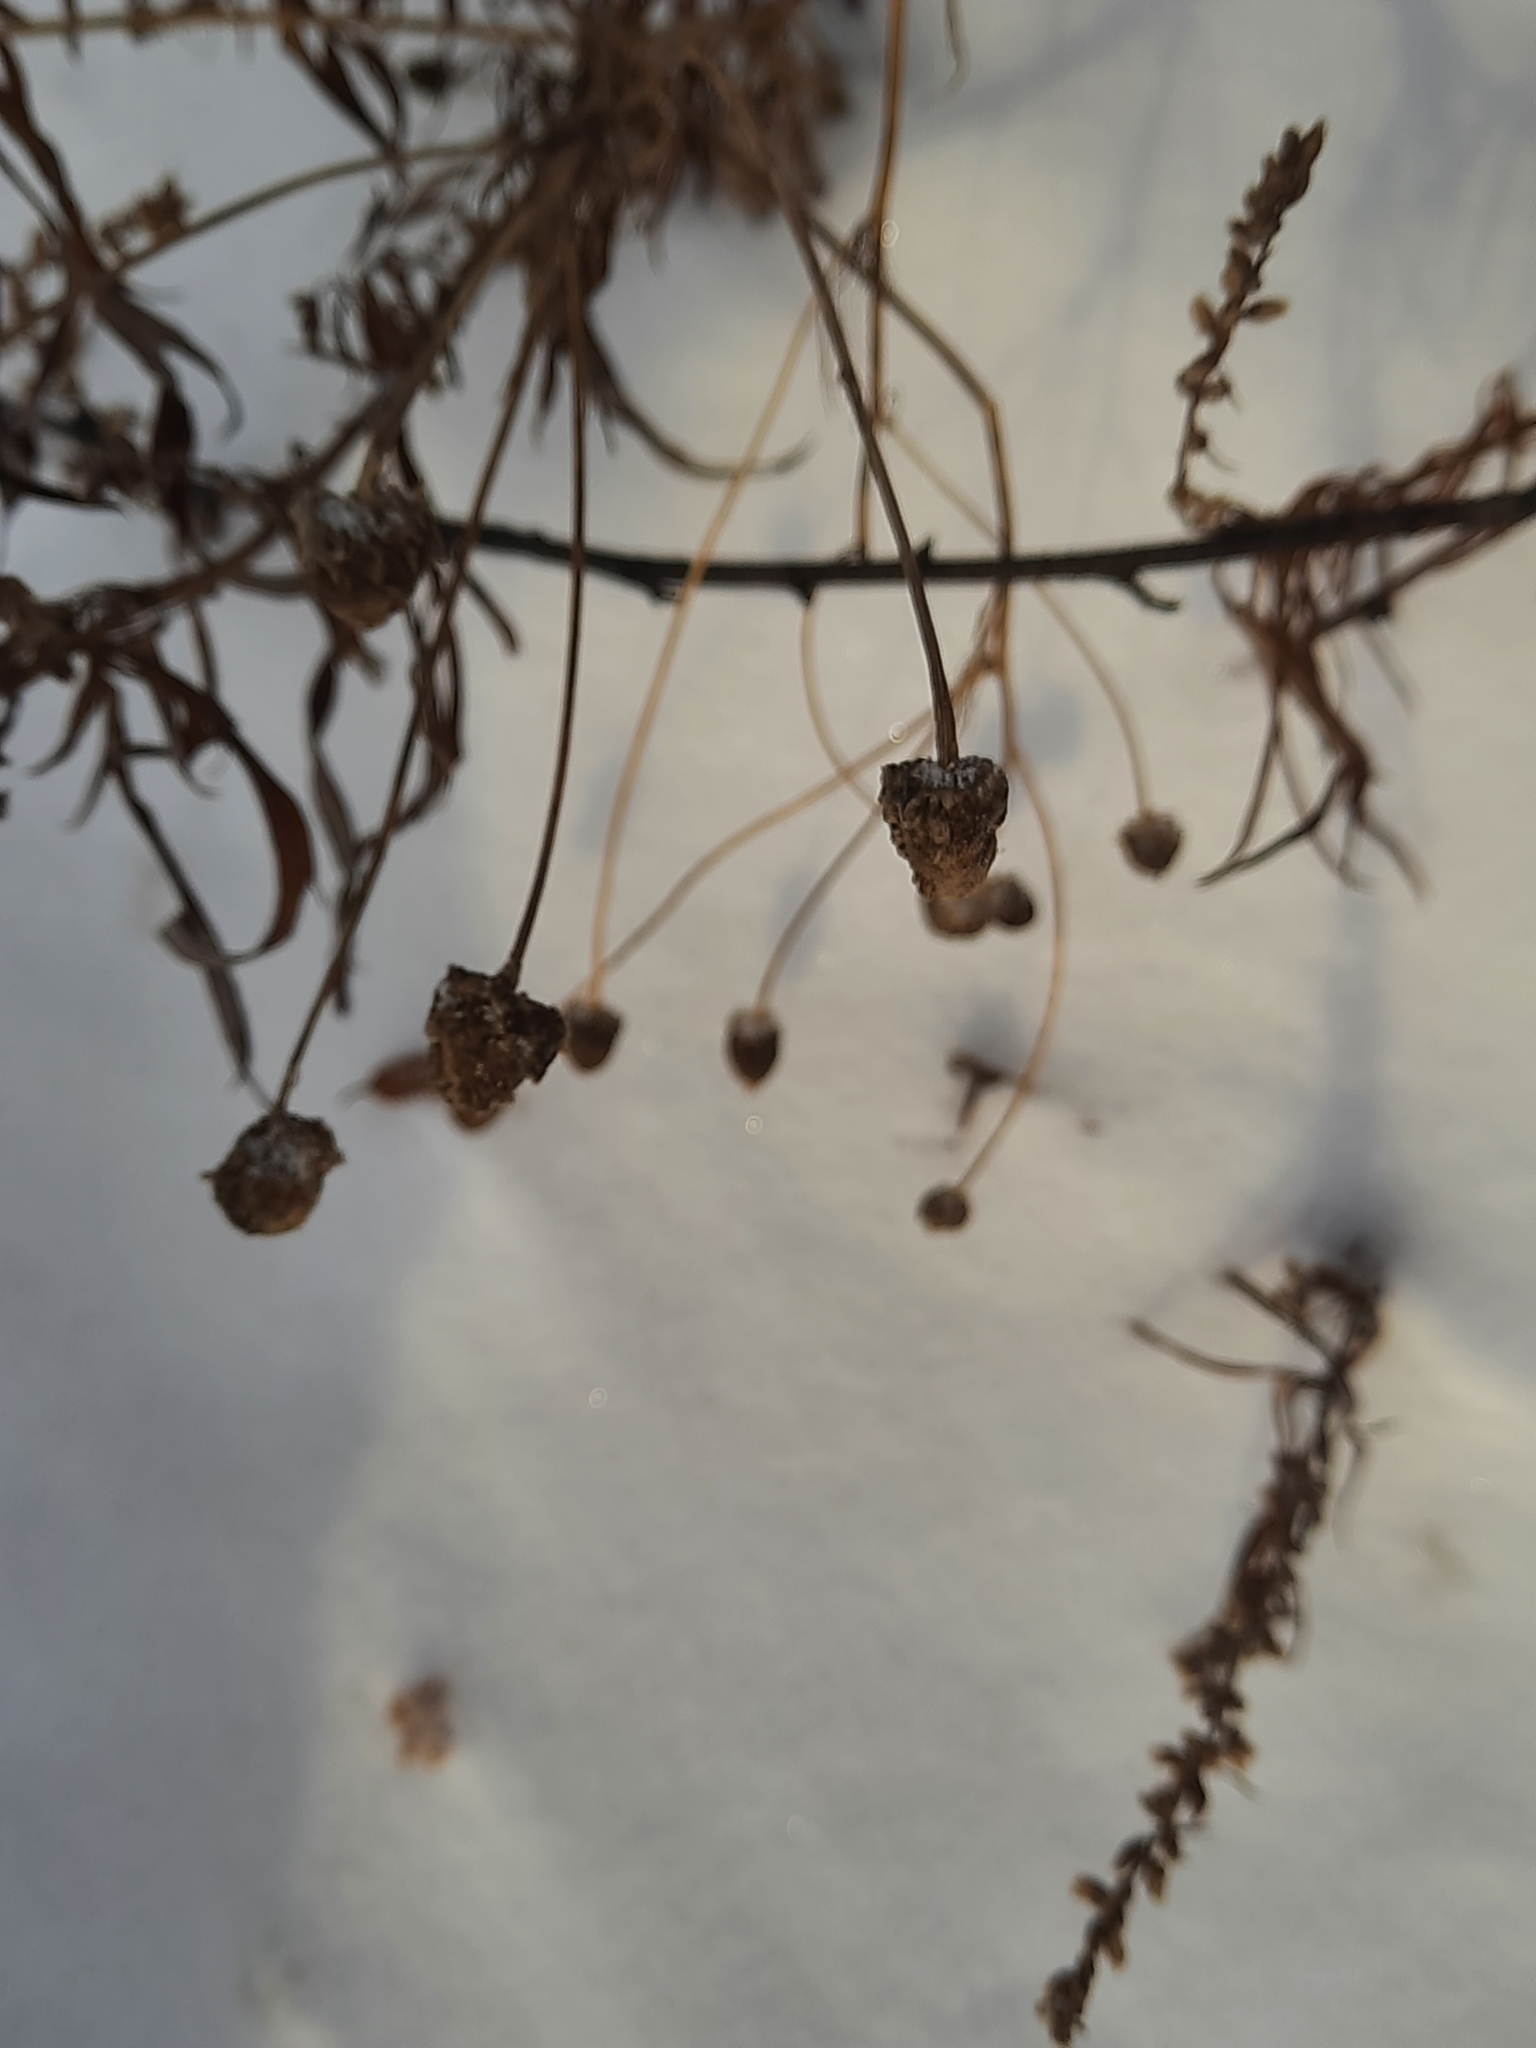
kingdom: Plantae
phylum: Tracheophyta
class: Magnoliopsida
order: Asterales
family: Asteraceae
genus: Tripleurospermum
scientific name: Tripleurospermum inodorum
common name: Scentless mayweed
